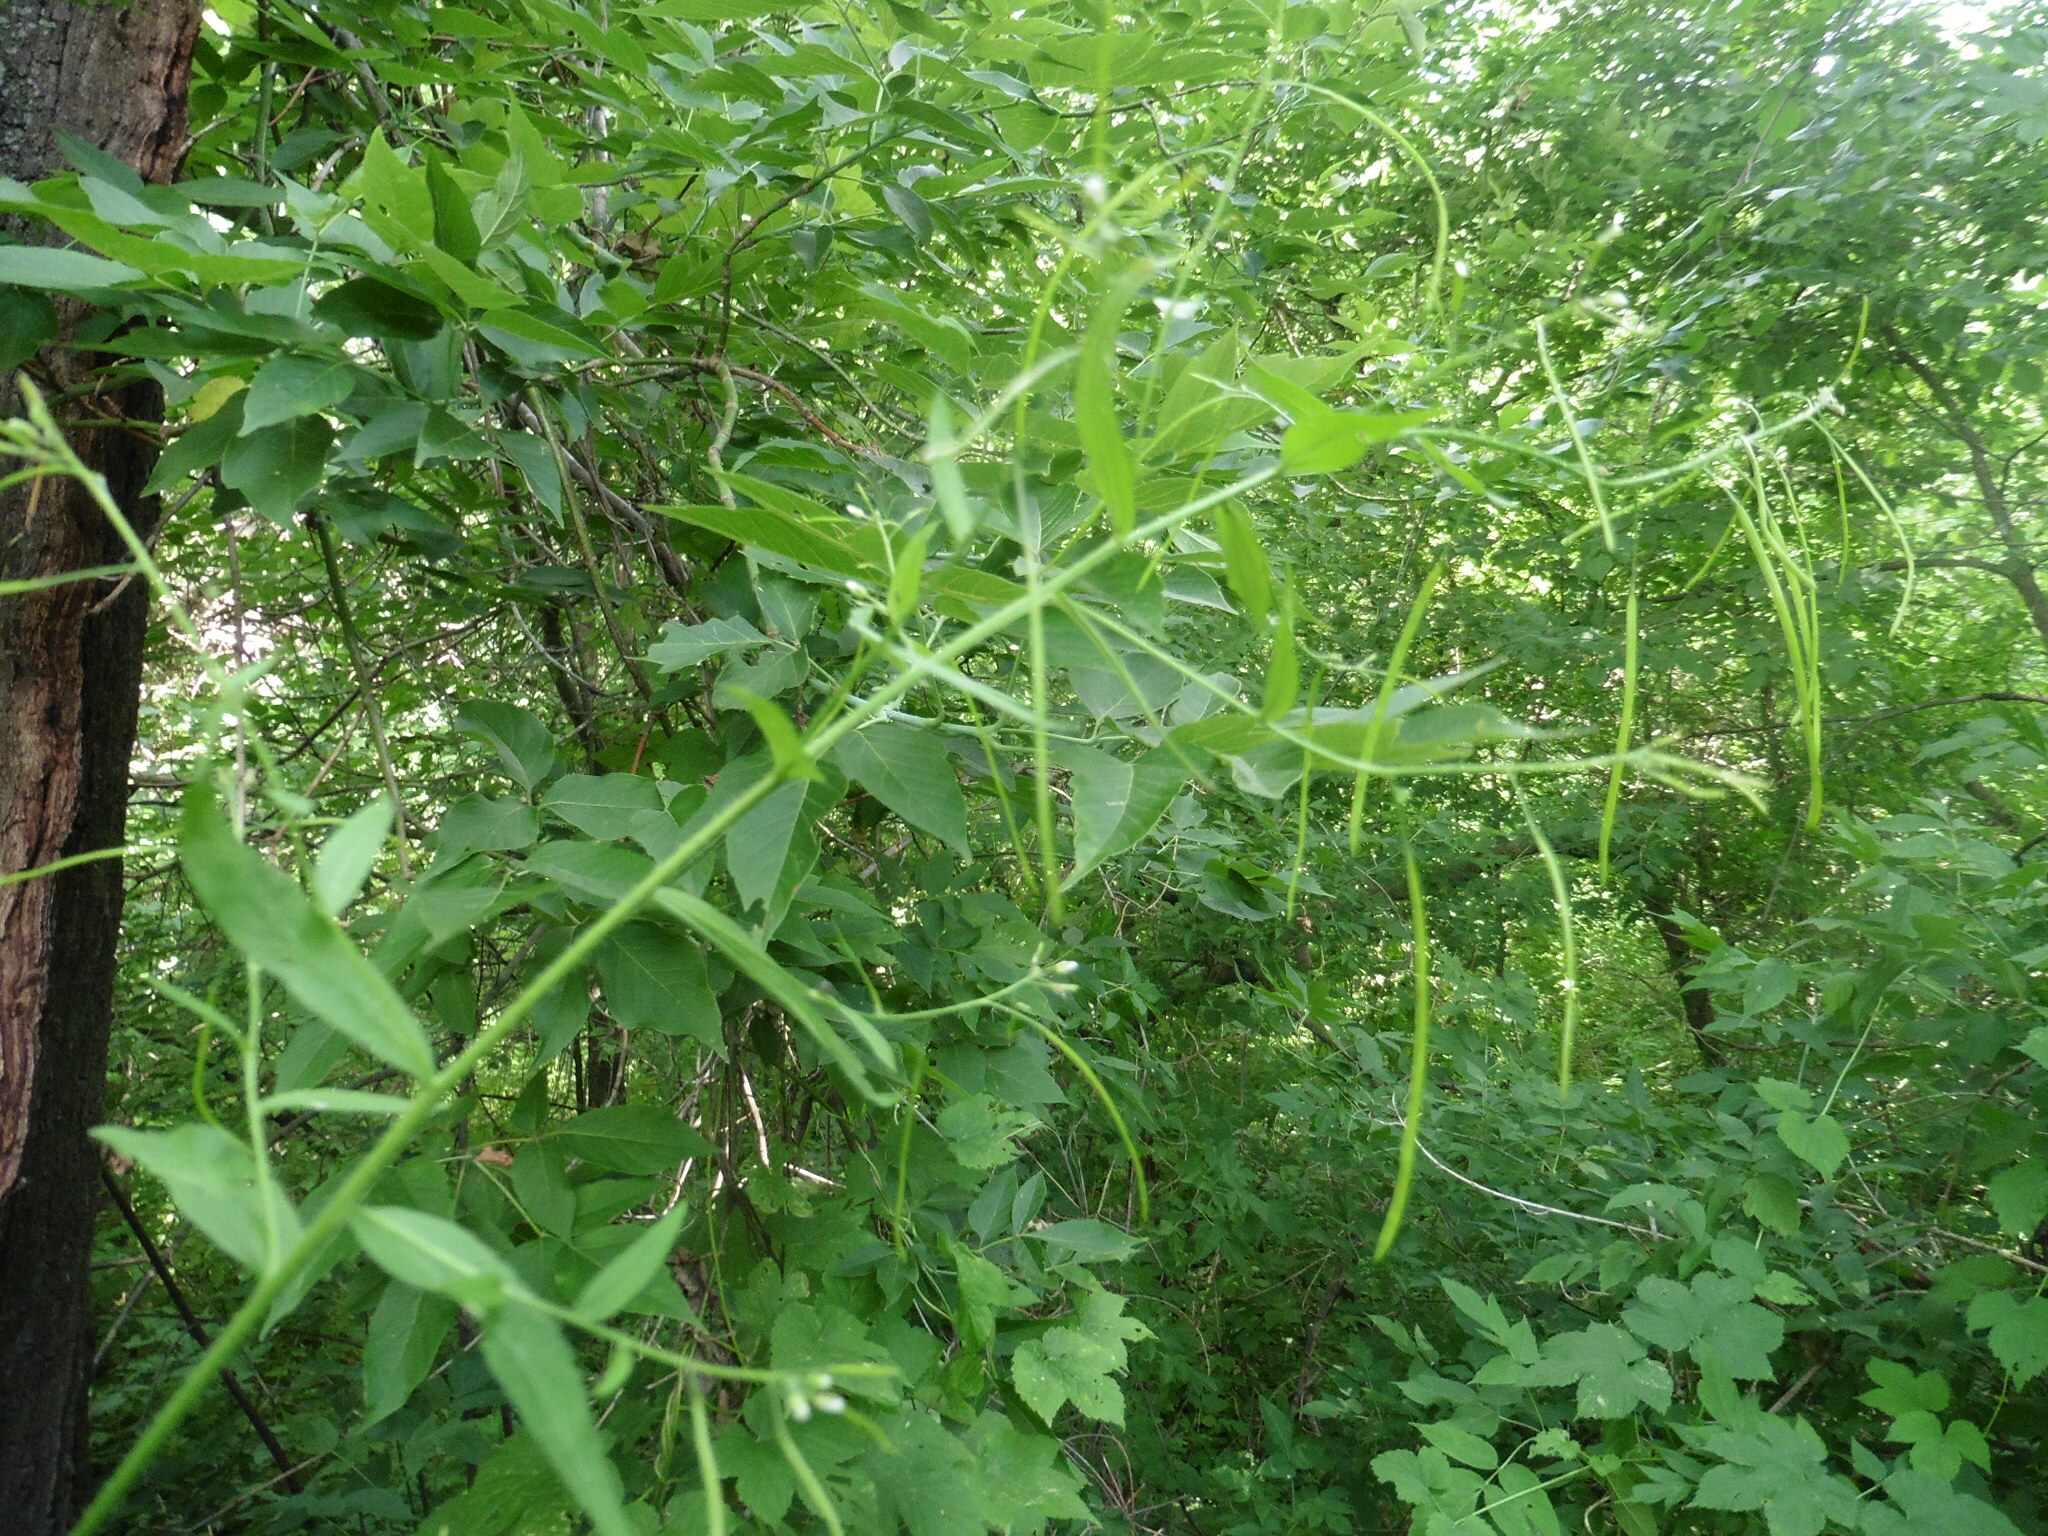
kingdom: Plantae
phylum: Tracheophyta
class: Magnoliopsida
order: Brassicales
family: Brassicaceae
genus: Catolobus
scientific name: Catolobus pendulus
